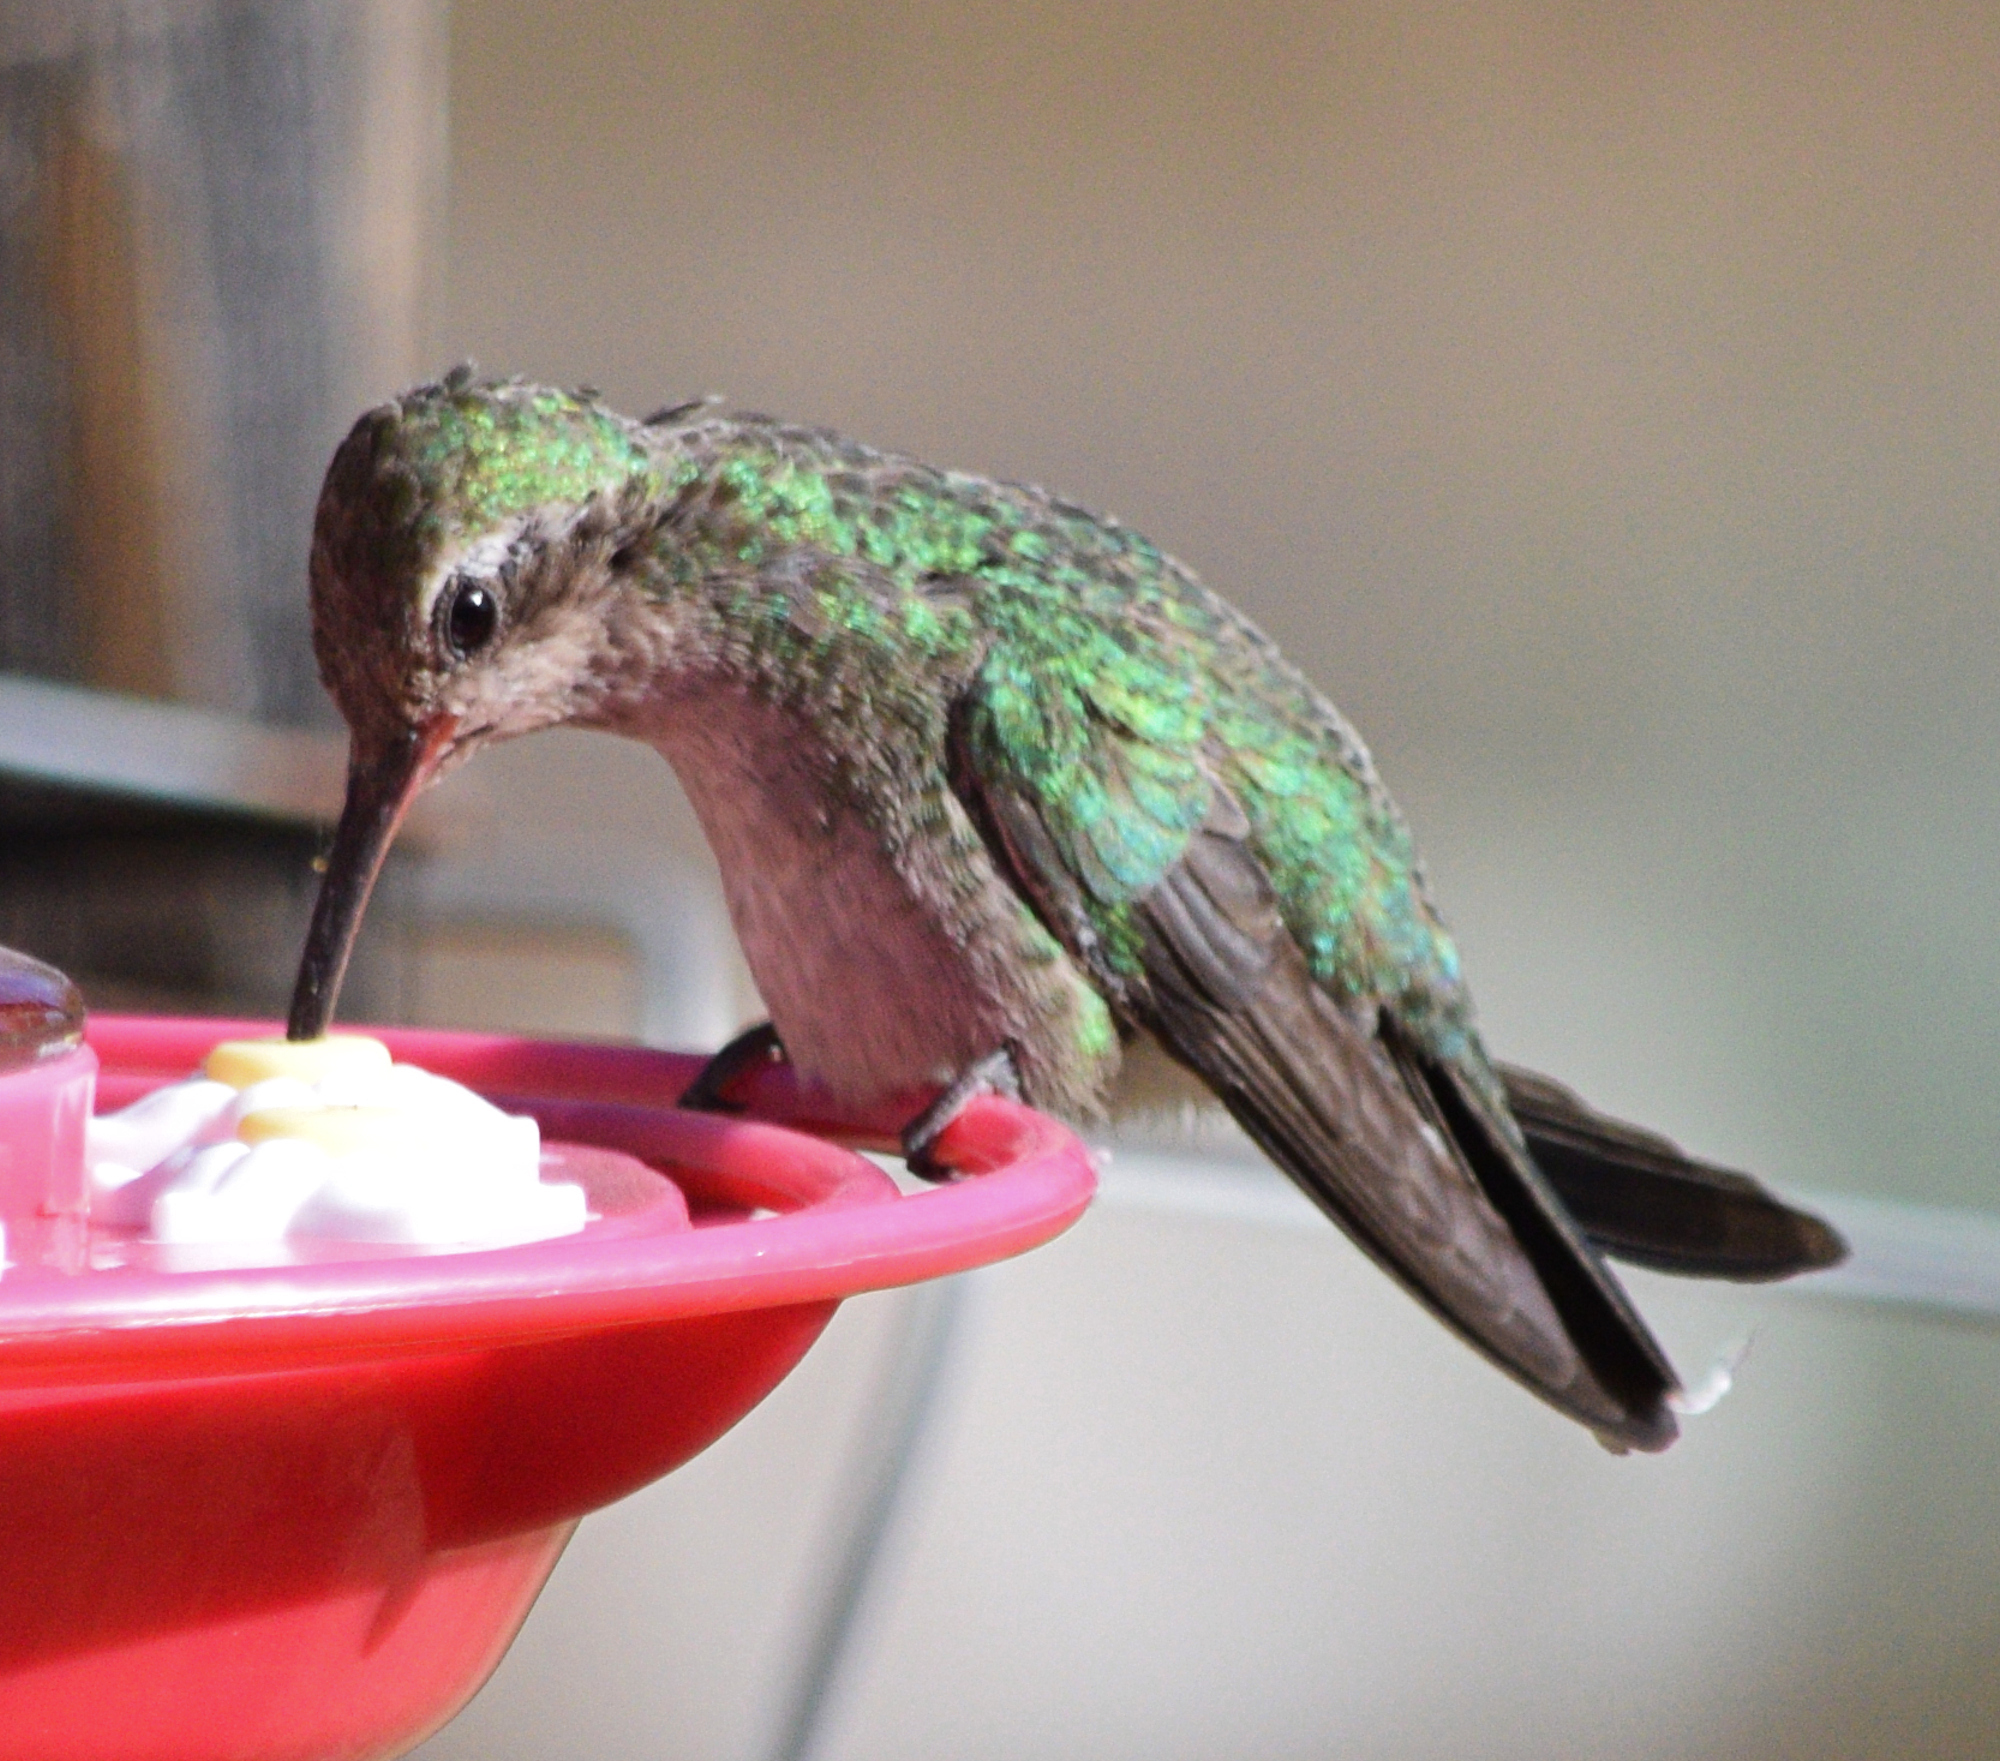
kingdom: Animalia
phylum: Chordata
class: Aves
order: Apodiformes
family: Trochilidae
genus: Cynanthus
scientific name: Cynanthus latirostris
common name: Broad-billed hummingbird
